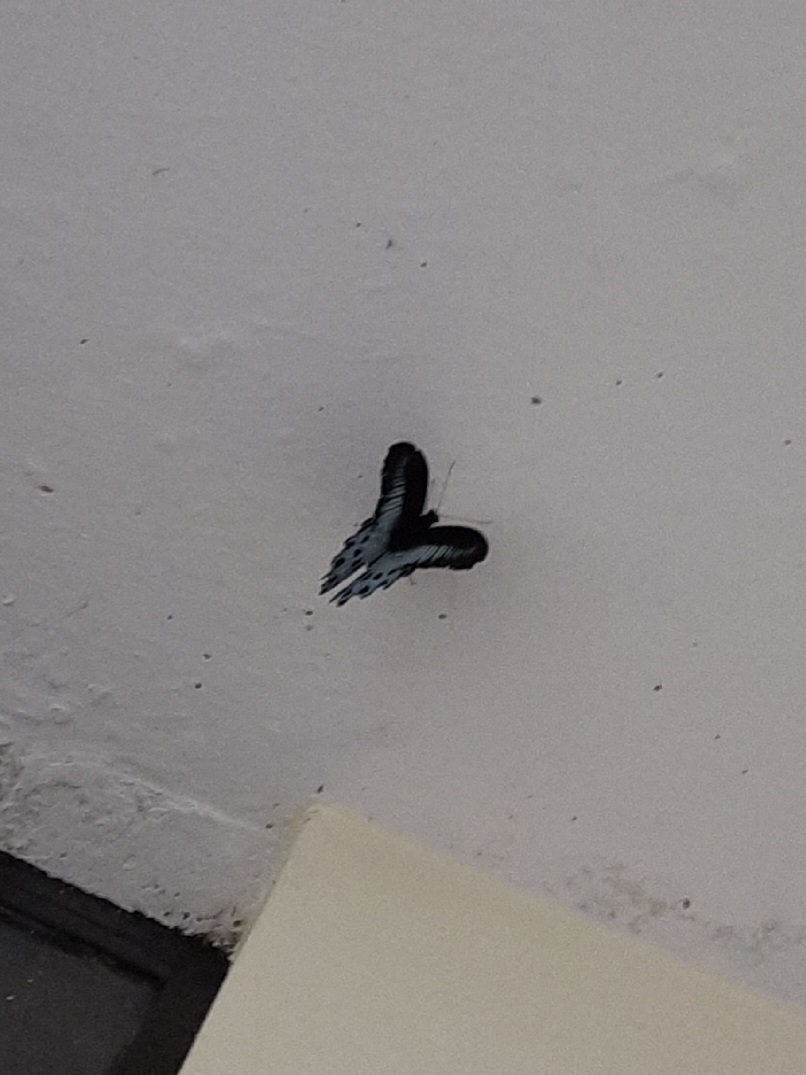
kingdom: Animalia
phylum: Arthropoda
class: Insecta
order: Lepidoptera
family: Papilionidae
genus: Papilio
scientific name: Papilio memnon
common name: Great mormon
